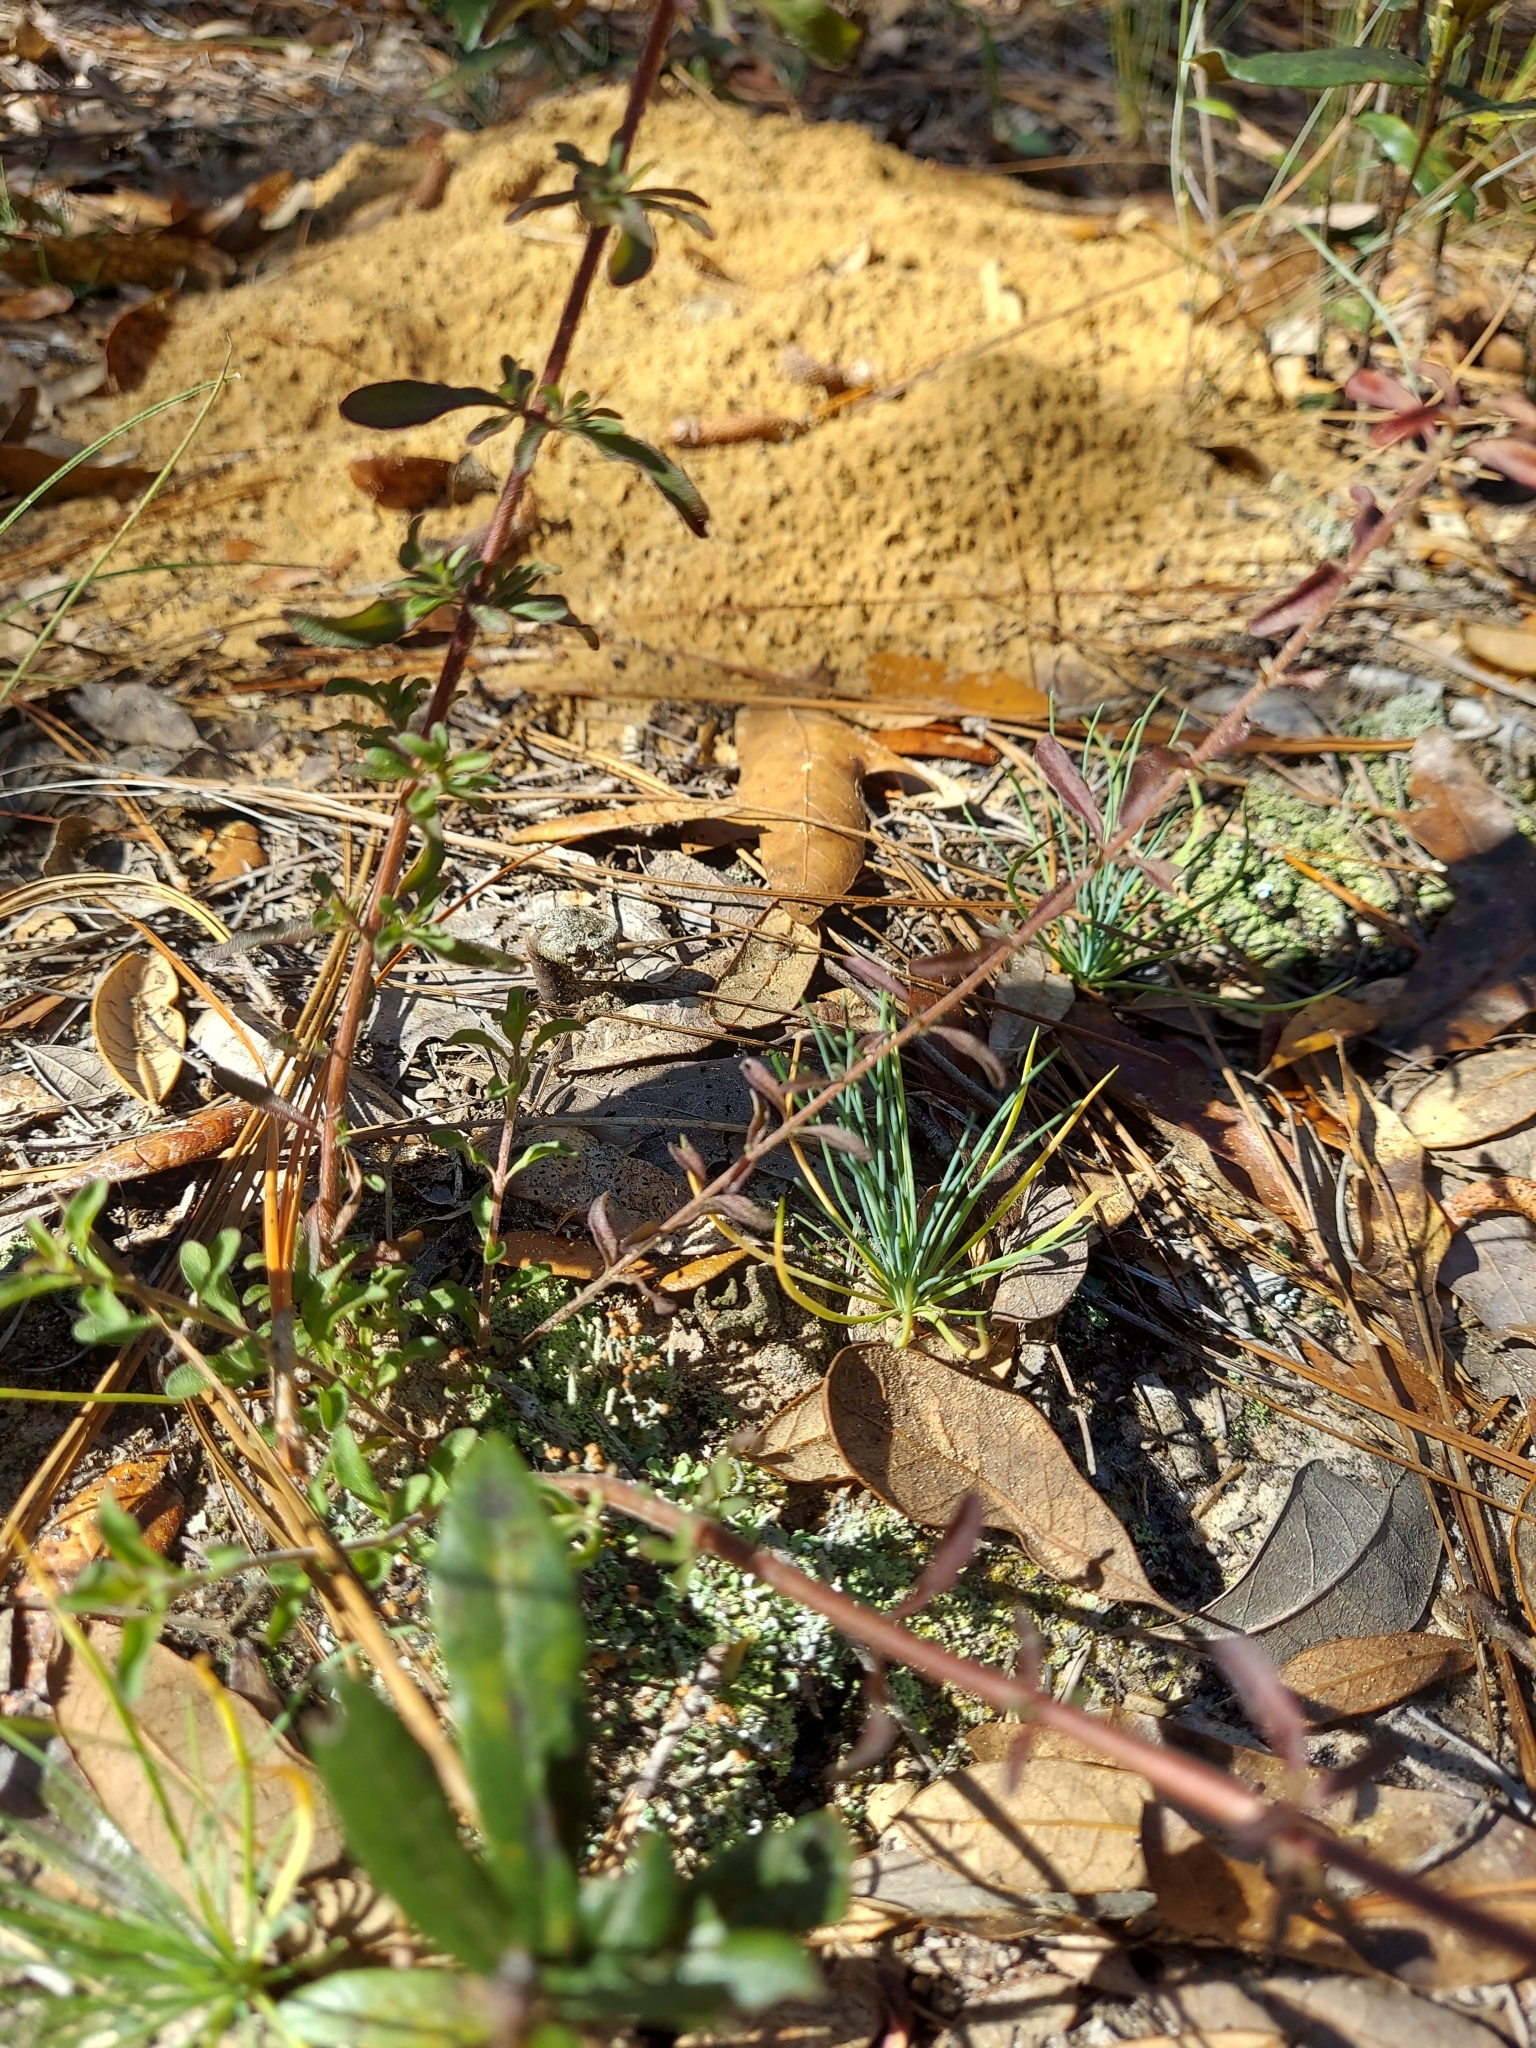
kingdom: Plantae
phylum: Tracheophyta
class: Magnoliopsida
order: Lamiales
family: Lamiaceae
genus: Trichostema
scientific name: Trichostema microphyllum
